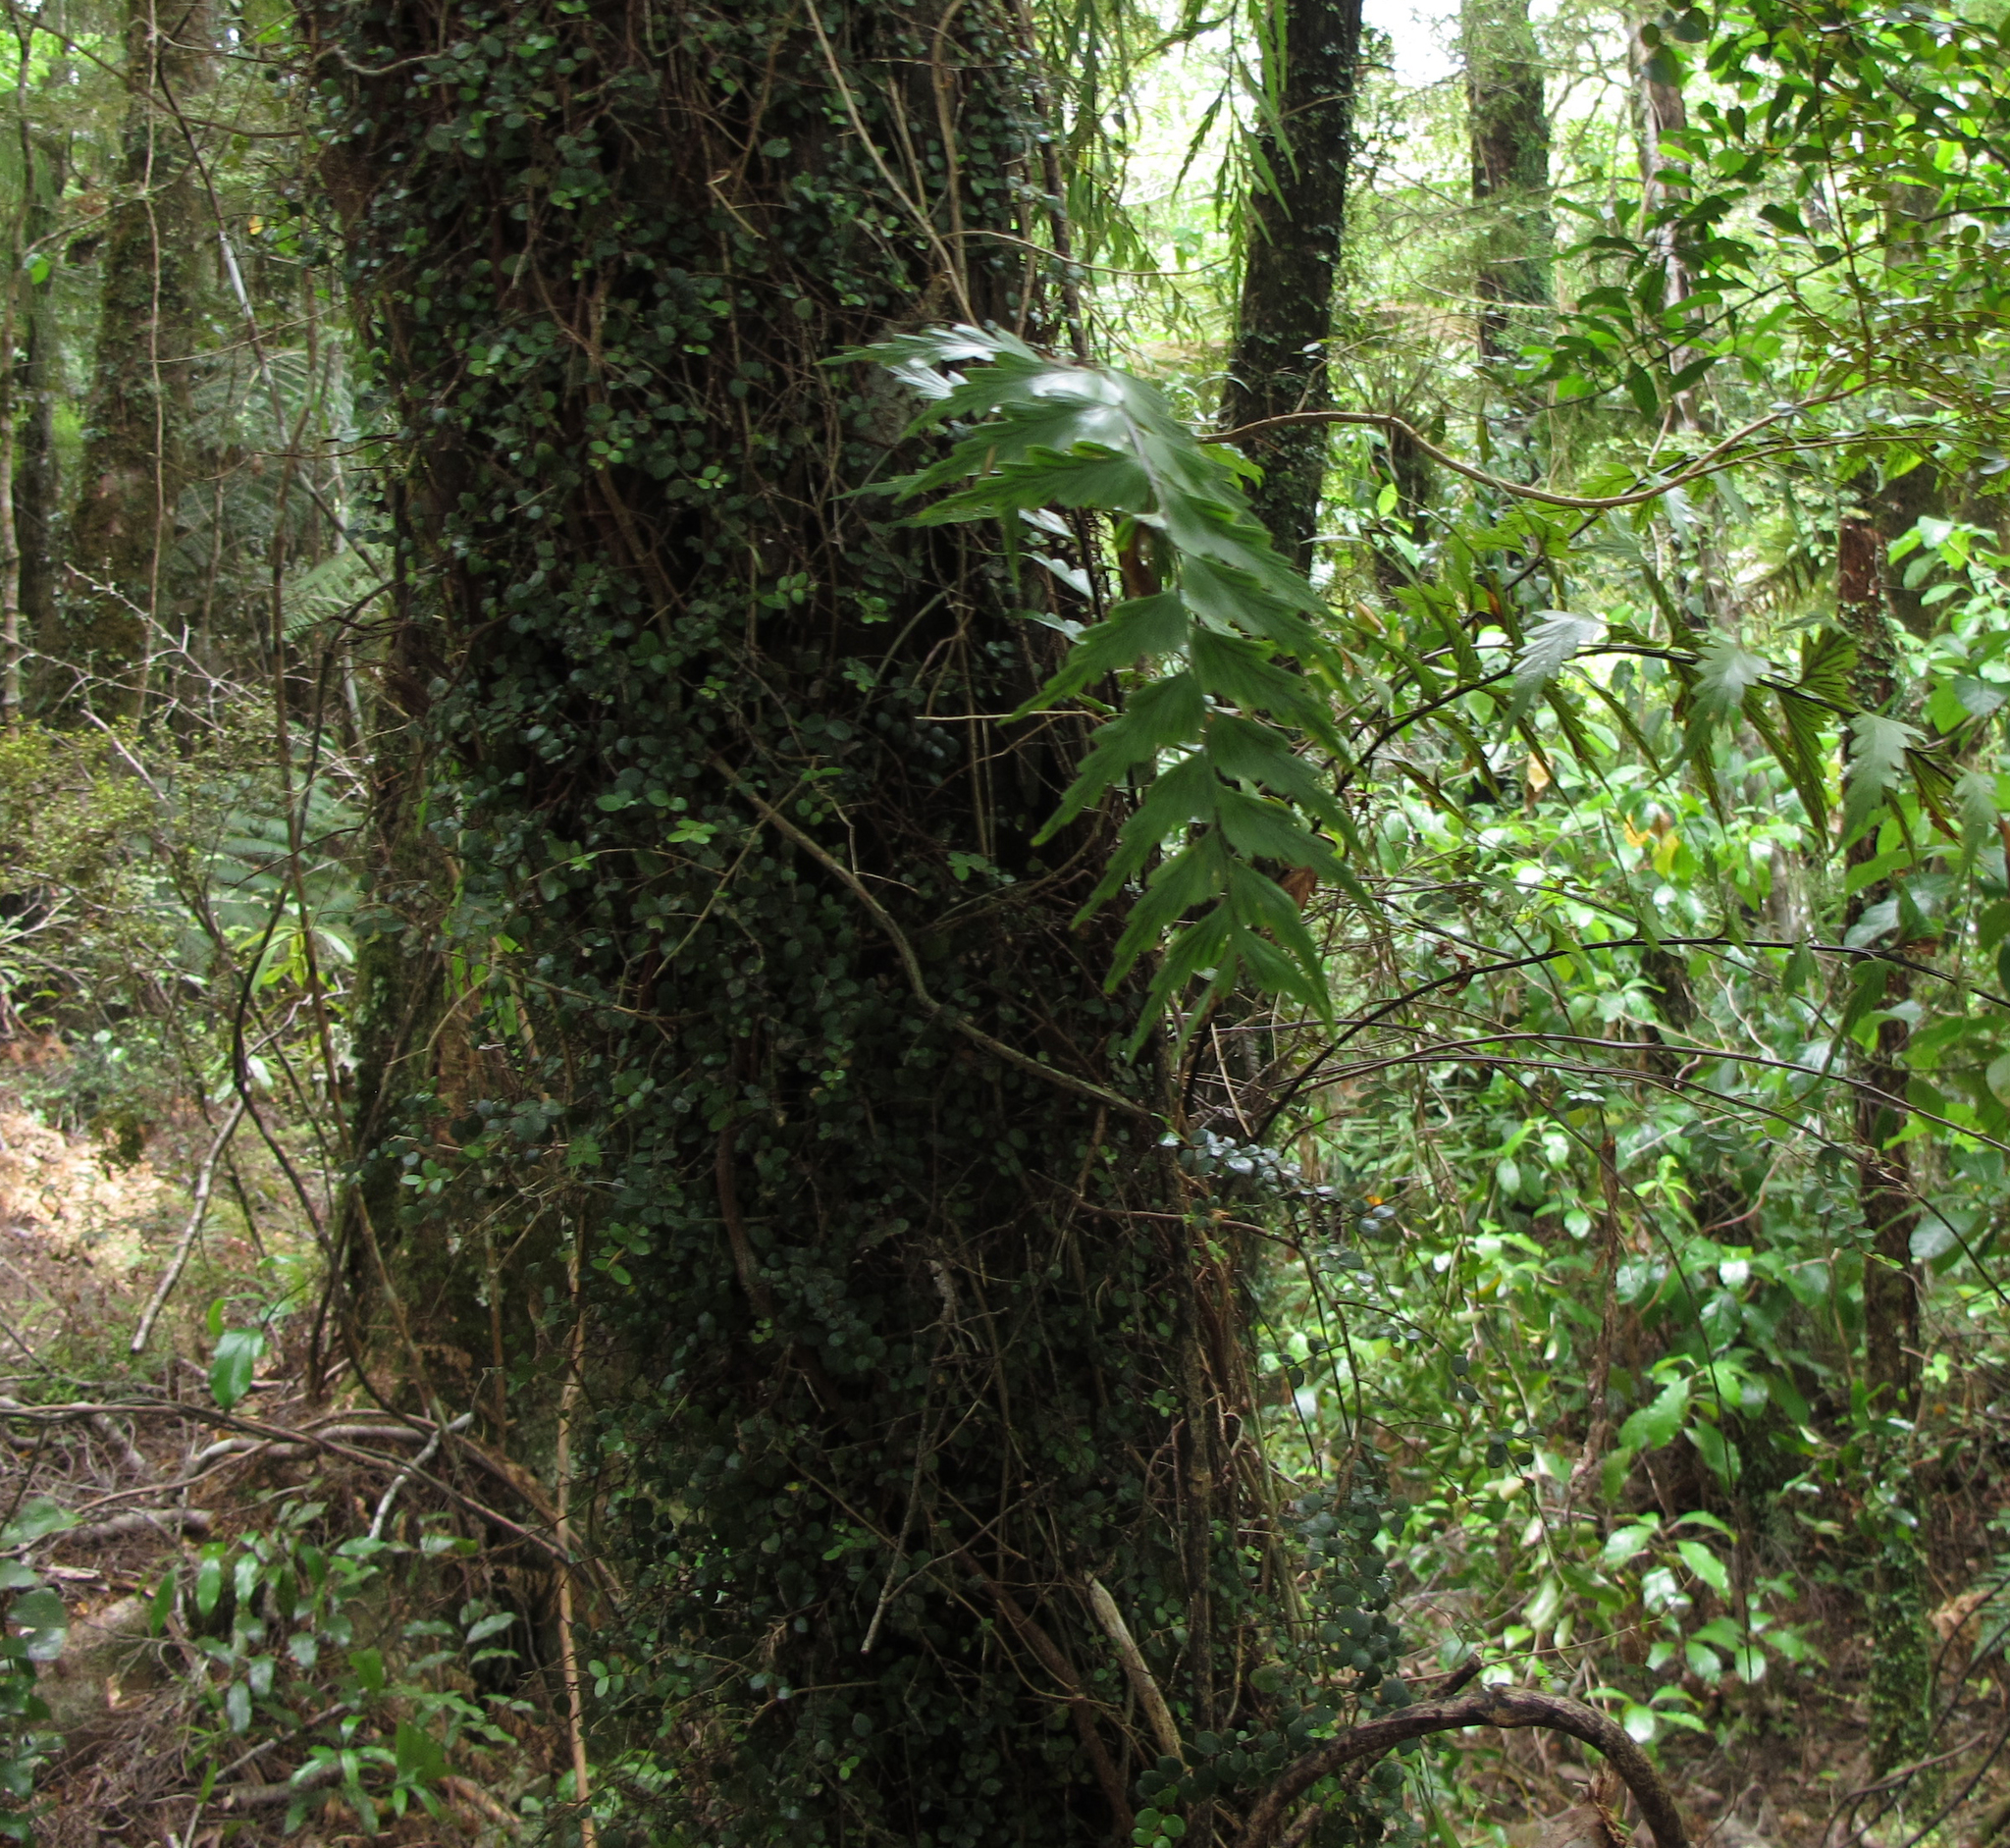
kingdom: Plantae
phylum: Tracheophyta
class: Polypodiopsida
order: Polypodiales
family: Aspleniaceae
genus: Asplenium
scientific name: Asplenium polyodon
